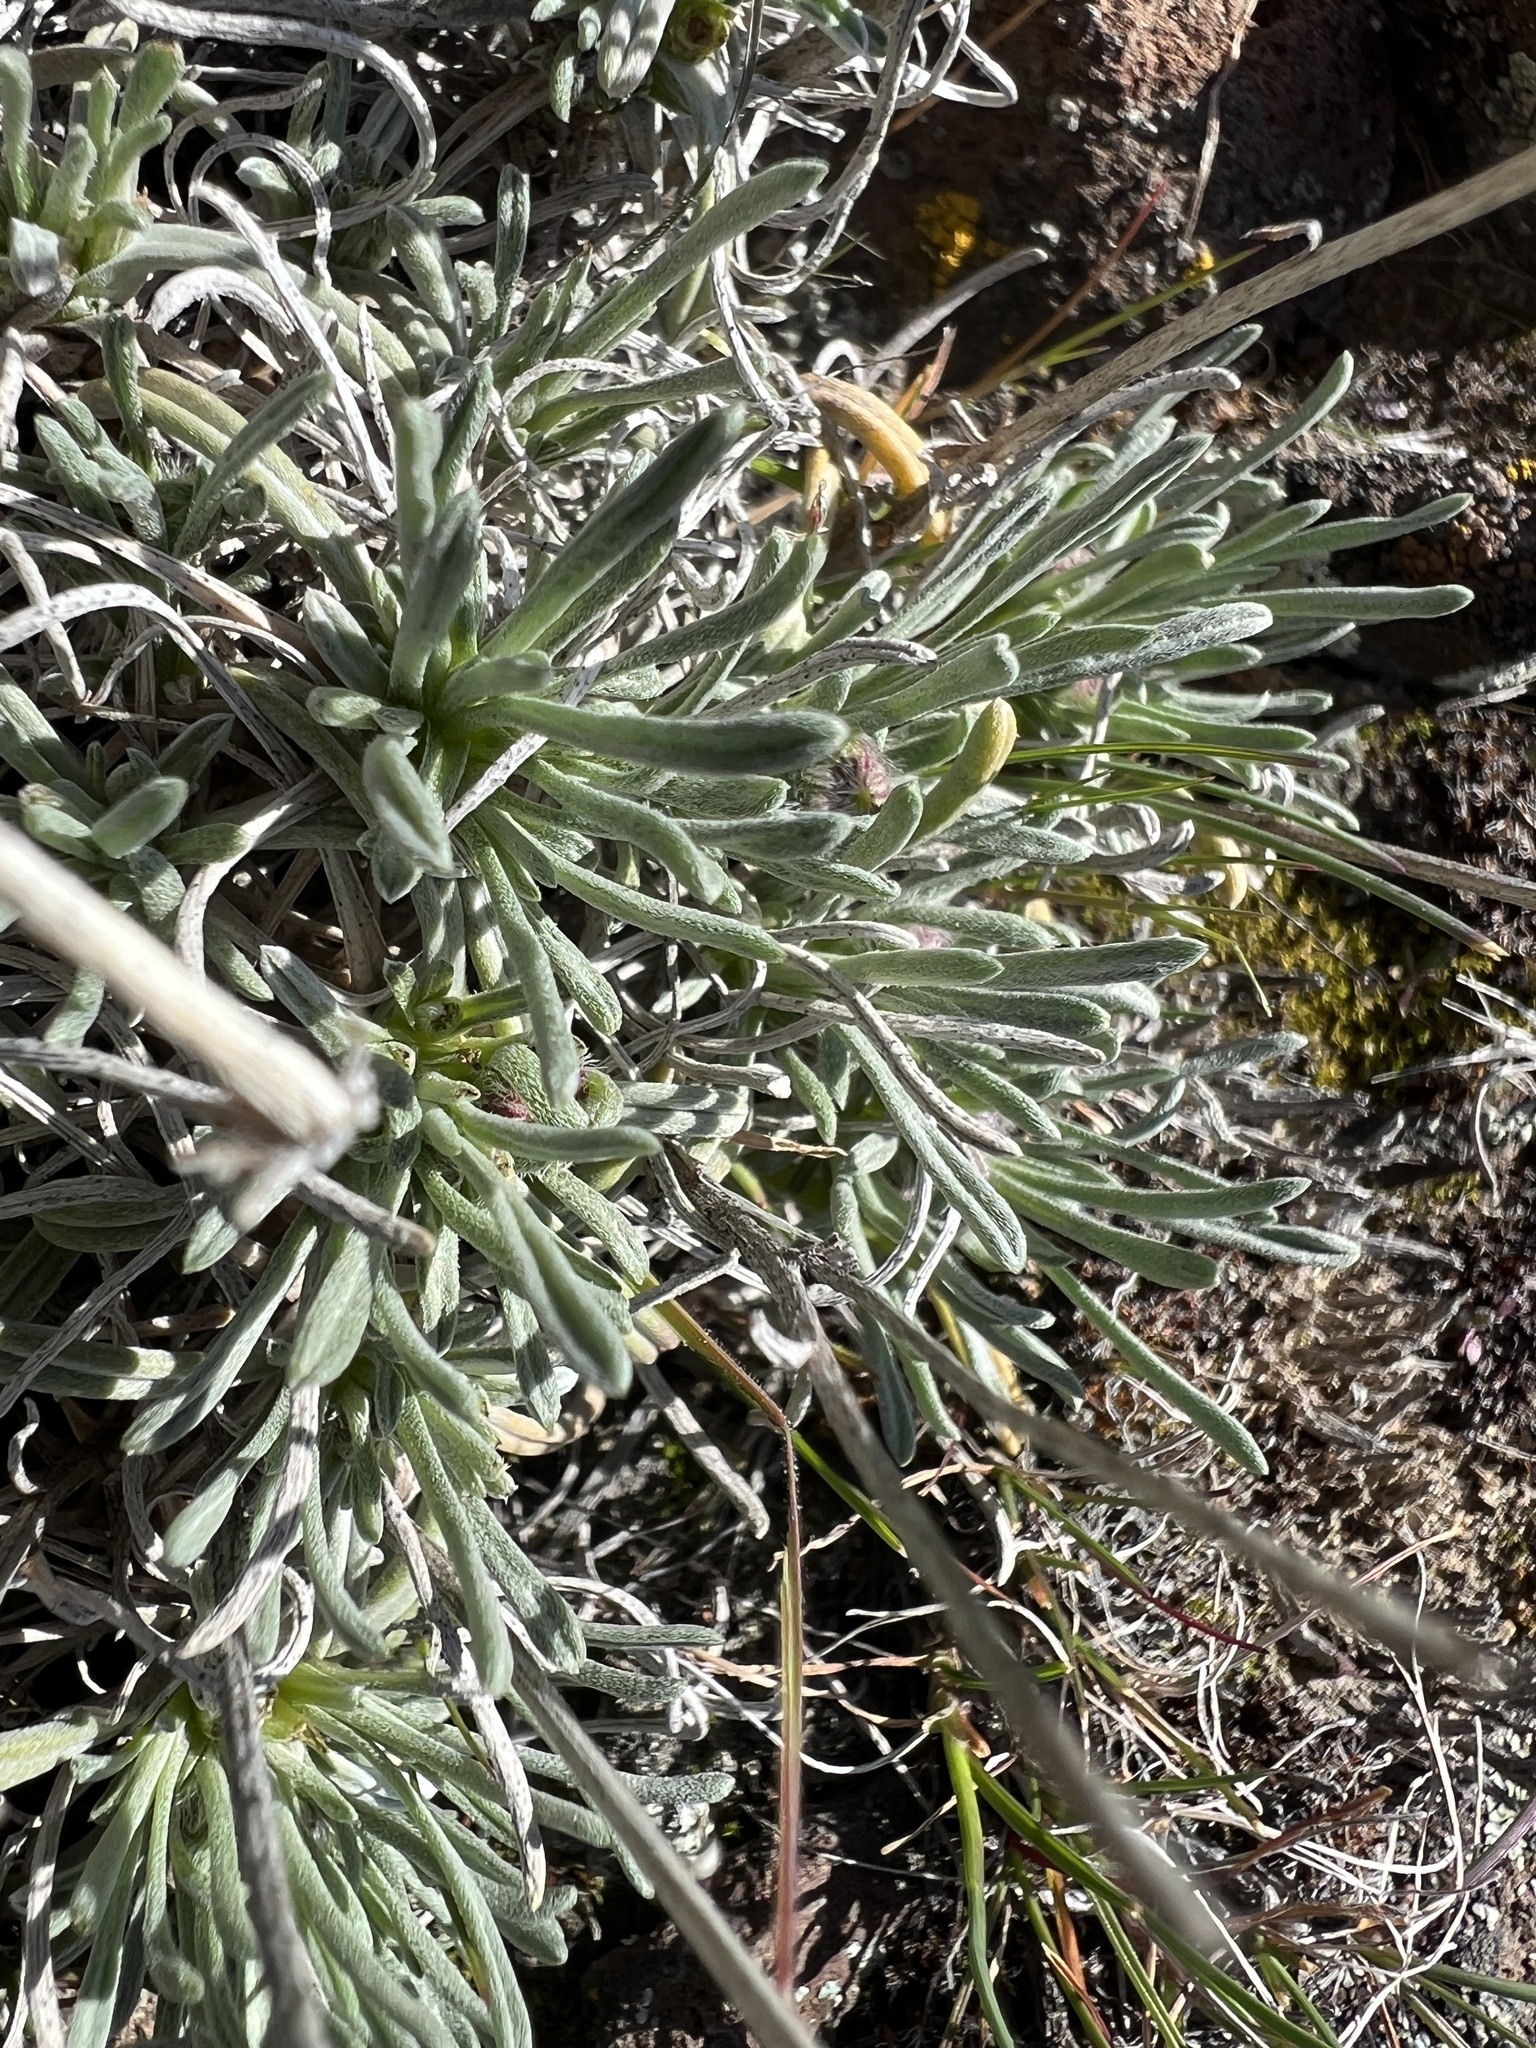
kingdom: Plantae
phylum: Tracheophyta
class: Magnoliopsida
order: Asterales
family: Asteraceae
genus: Nestotus
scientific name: Nestotus stenophyllus
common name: Narrow-leaf mock goldenweed
